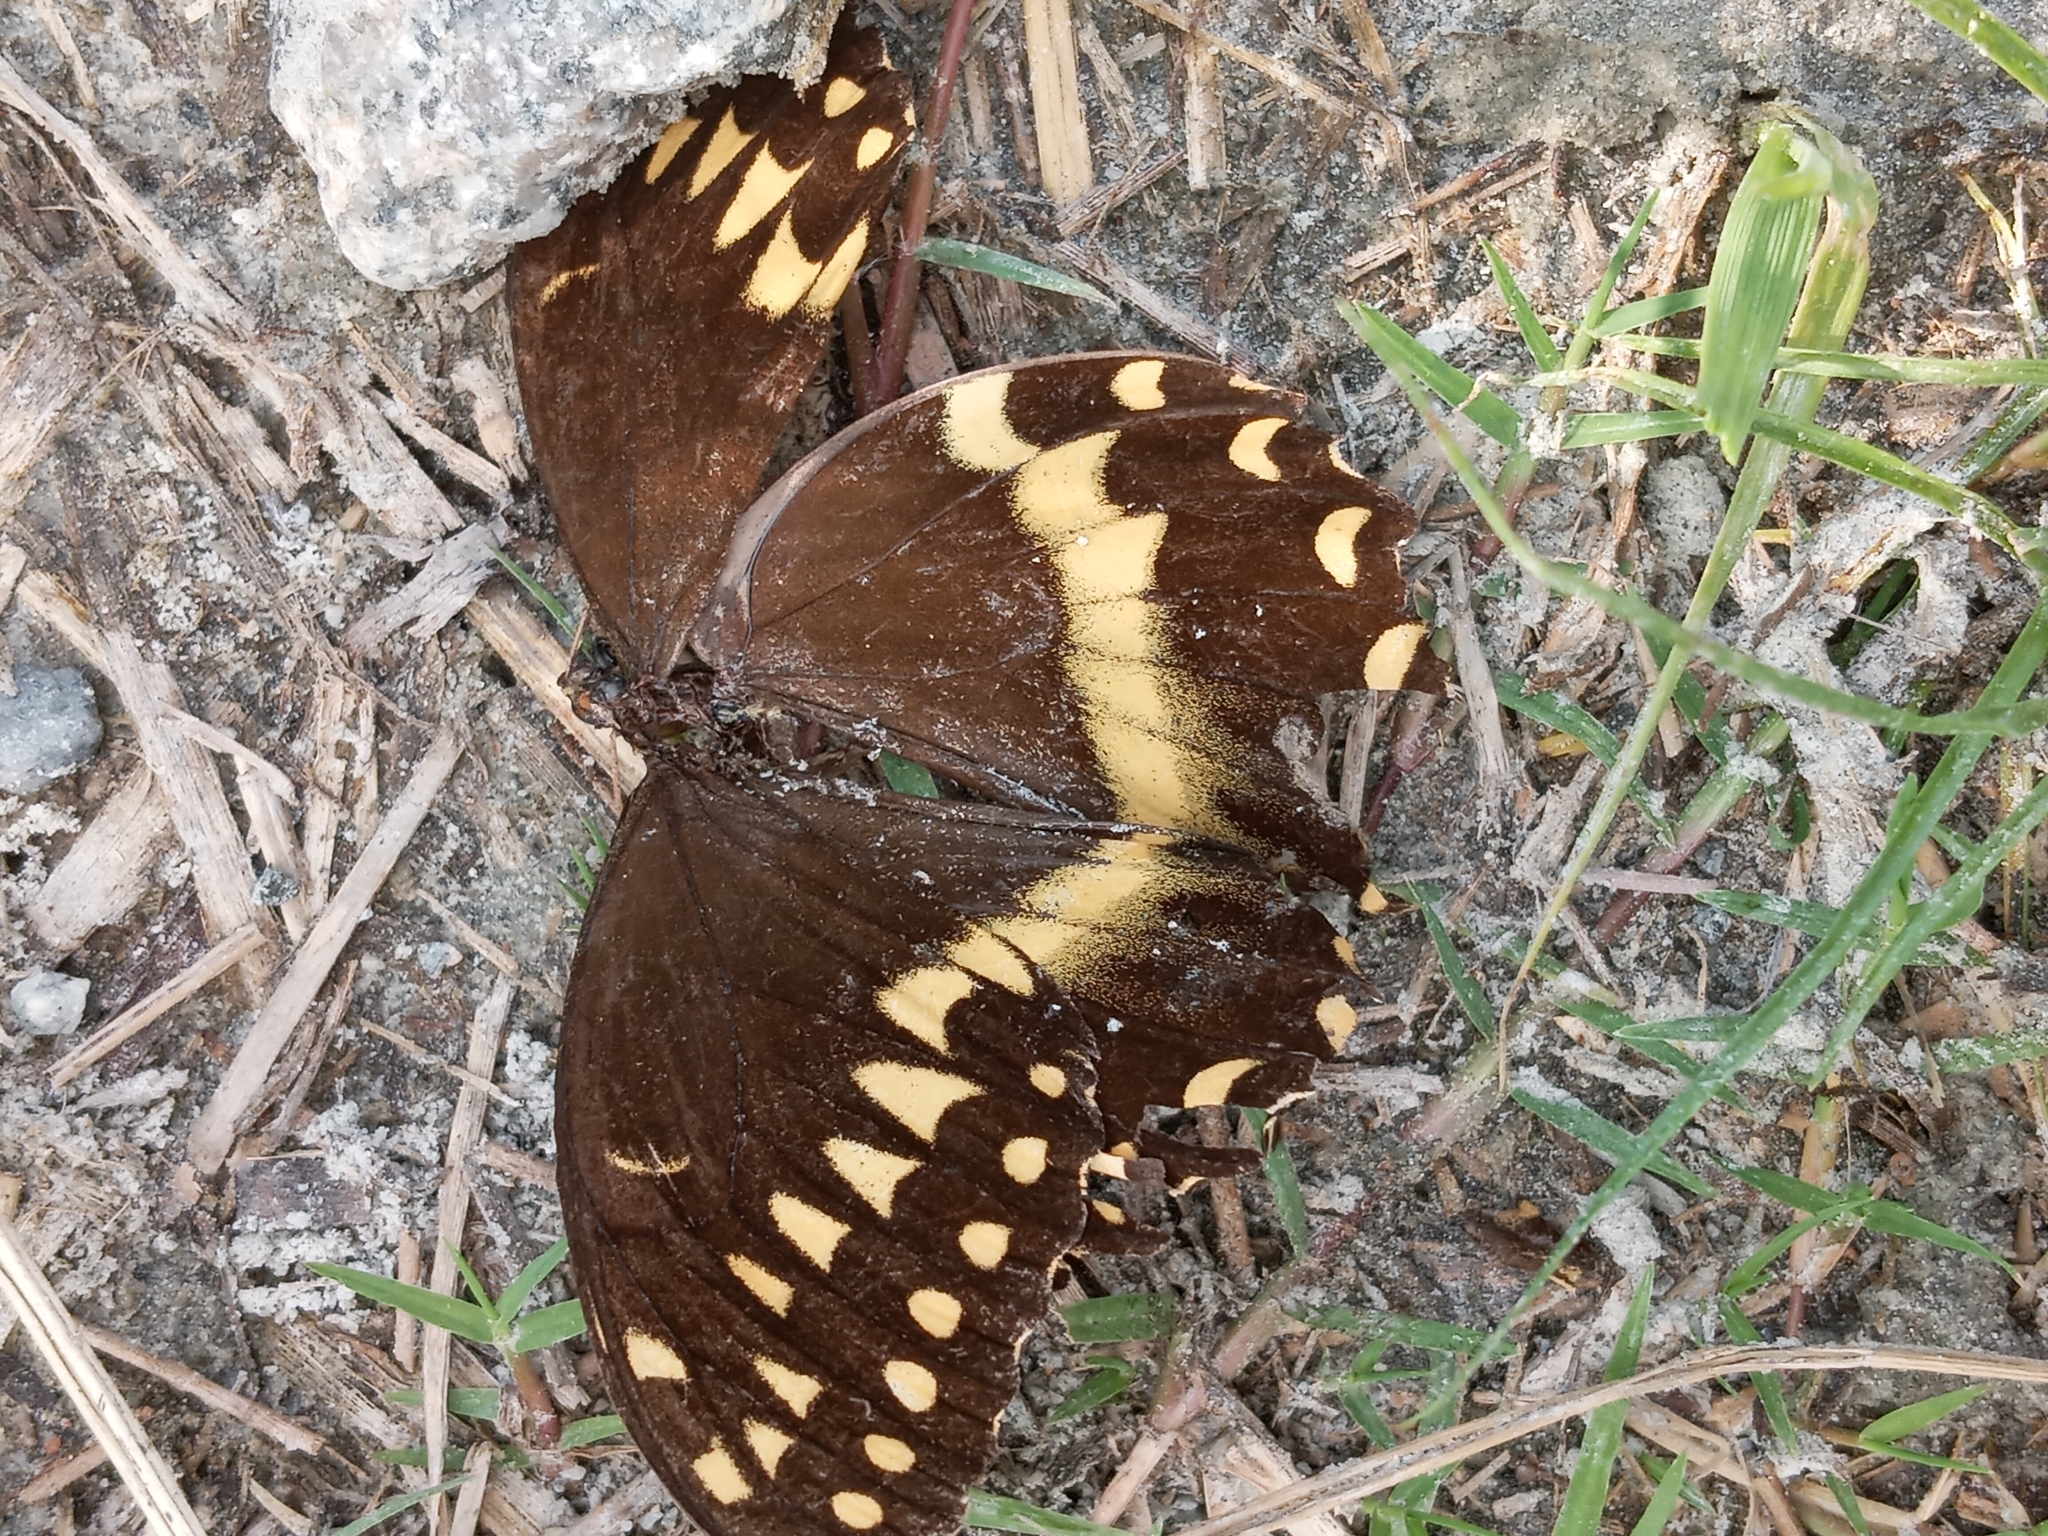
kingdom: Animalia
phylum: Arthropoda
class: Insecta
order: Lepidoptera
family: Papilionidae
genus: Papilio
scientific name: Papilio palamedes
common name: Palamedes swallowtail
